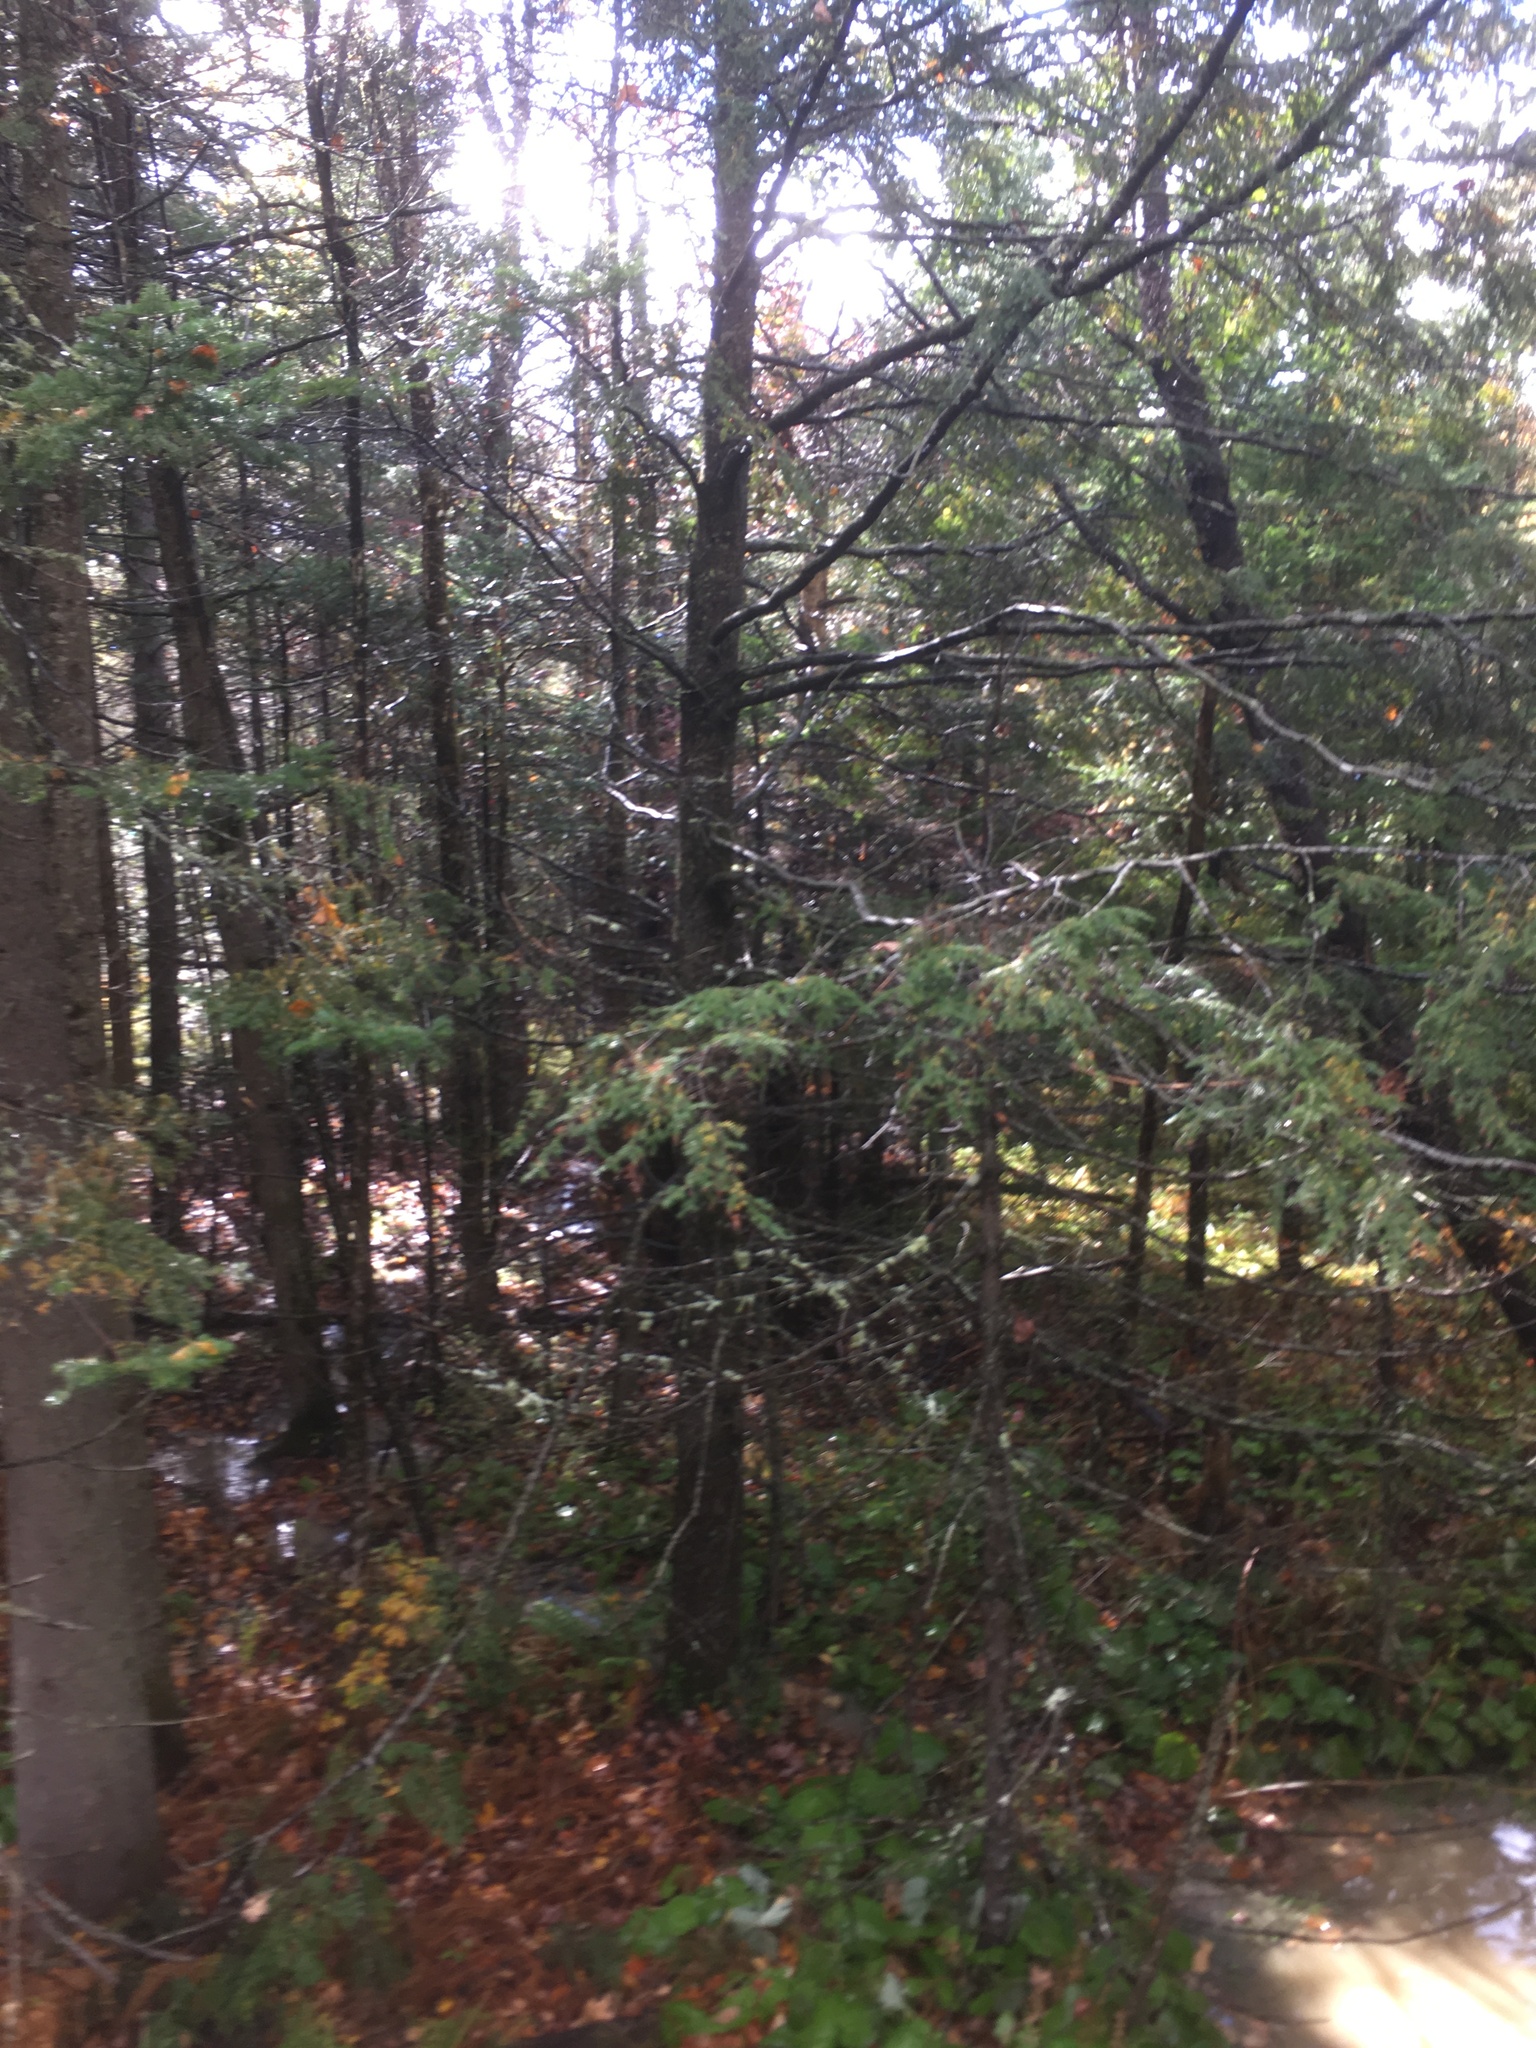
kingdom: Plantae
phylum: Tracheophyta
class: Pinopsida
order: Pinales
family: Pinaceae
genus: Tsuga
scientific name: Tsuga canadensis
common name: Eastern hemlock
